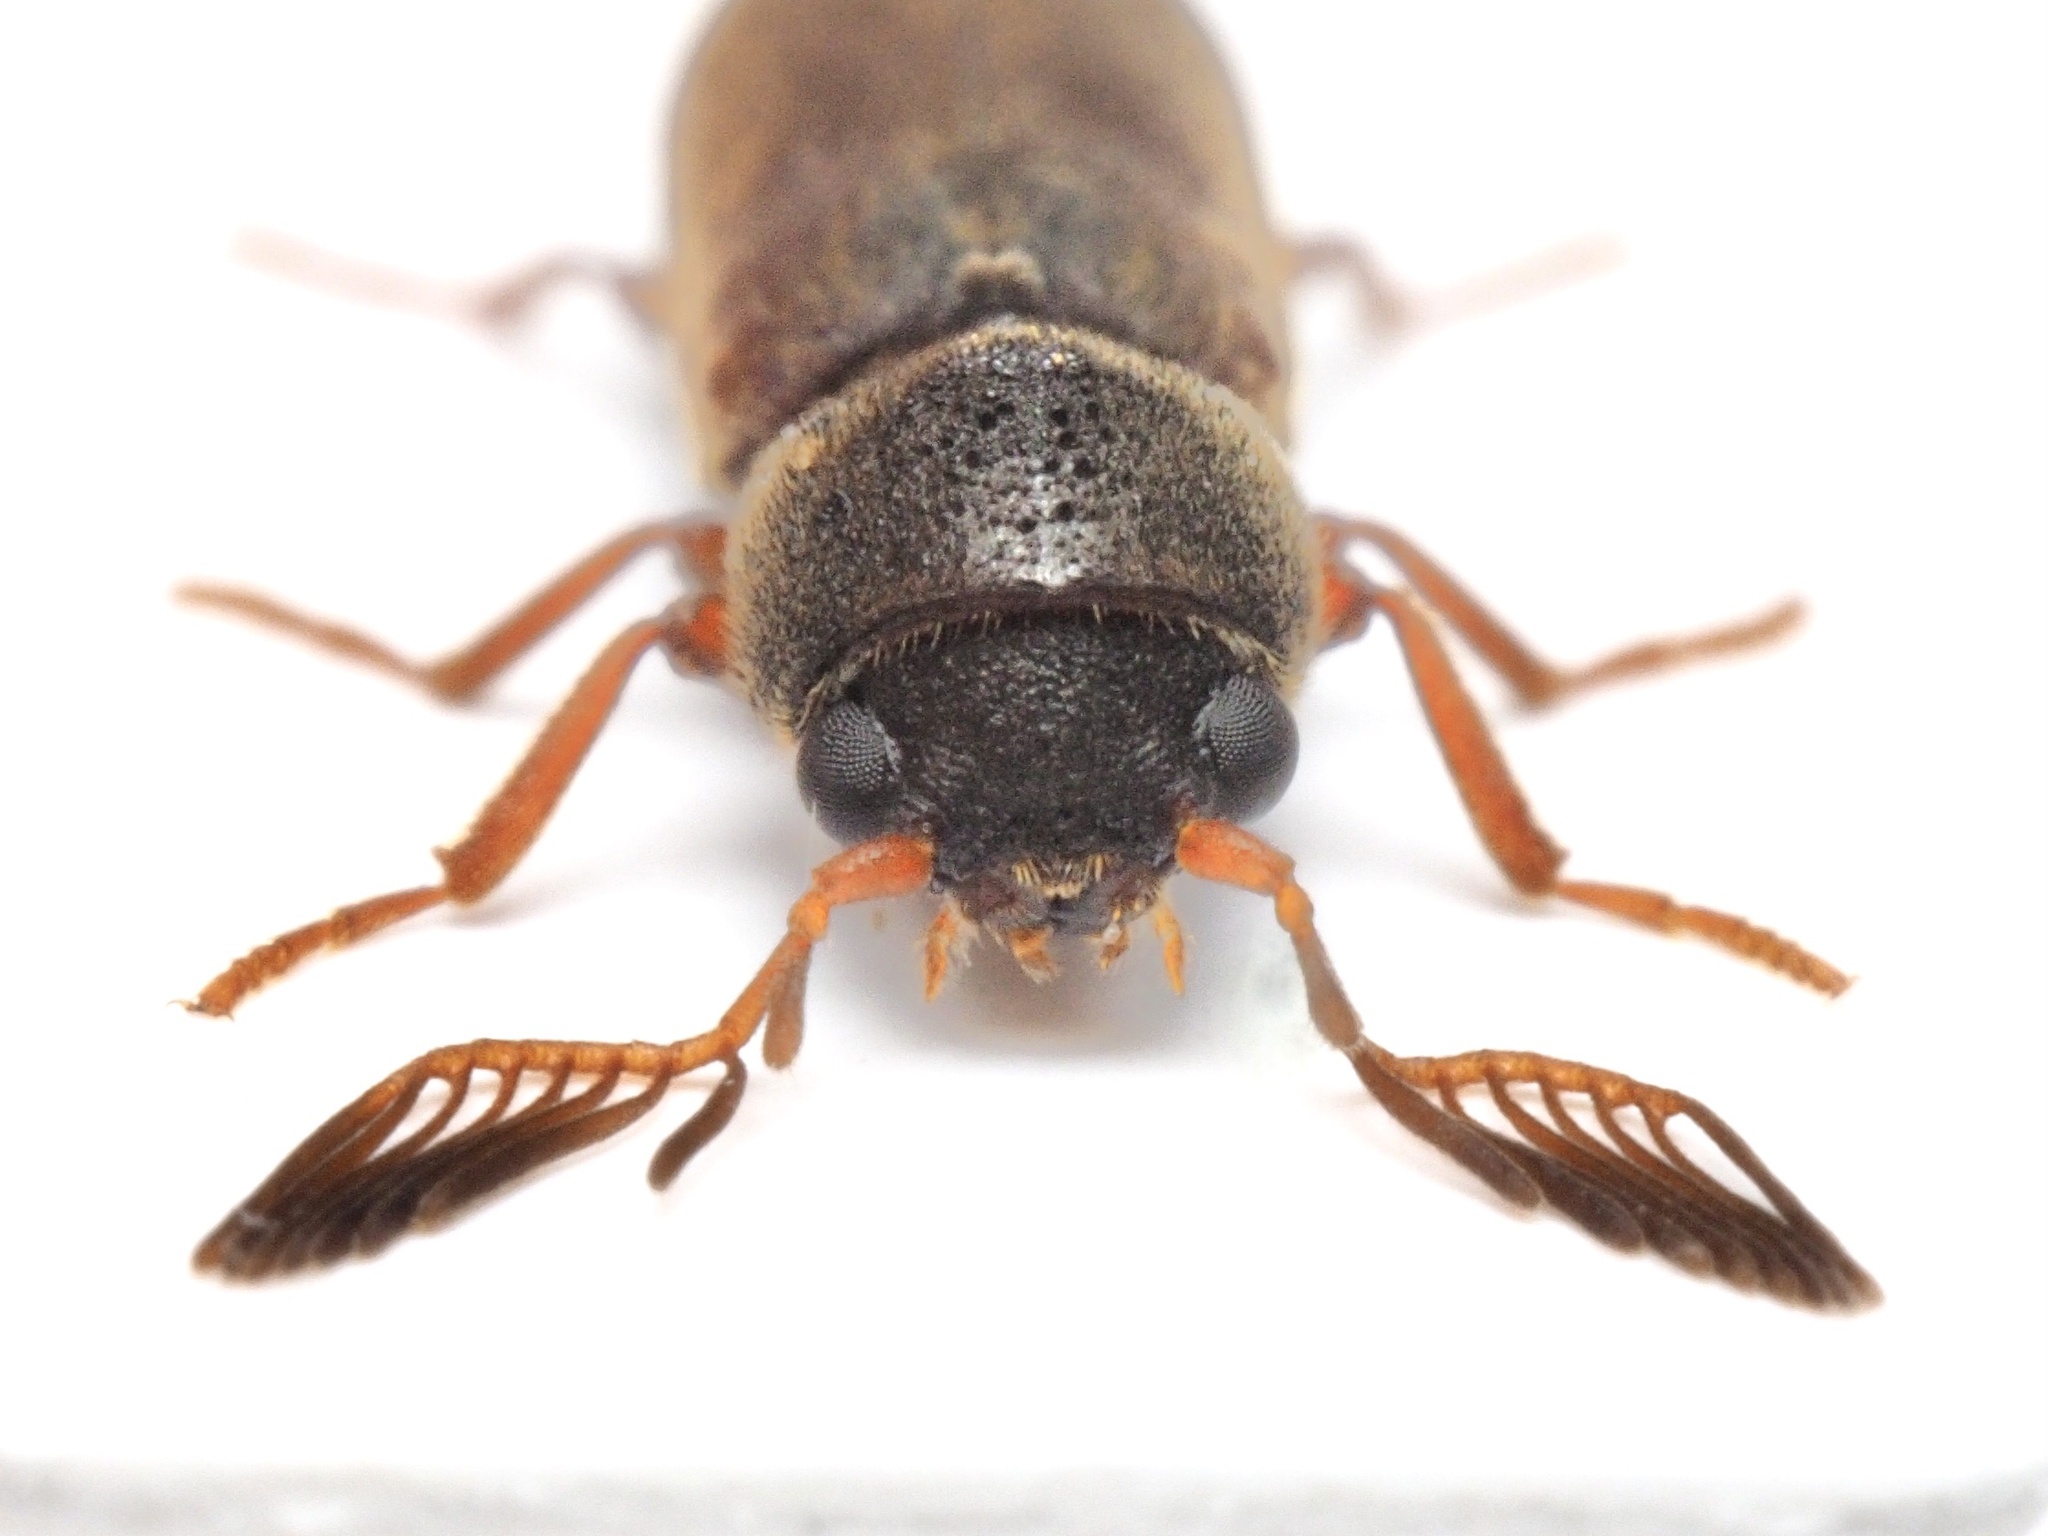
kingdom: Animalia
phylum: Arthropoda
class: Insecta
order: Coleoptera
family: Anobiidae
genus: Ptilinus
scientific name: Ptilinus pectinicornis
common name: Fan-bearing wood-borer
